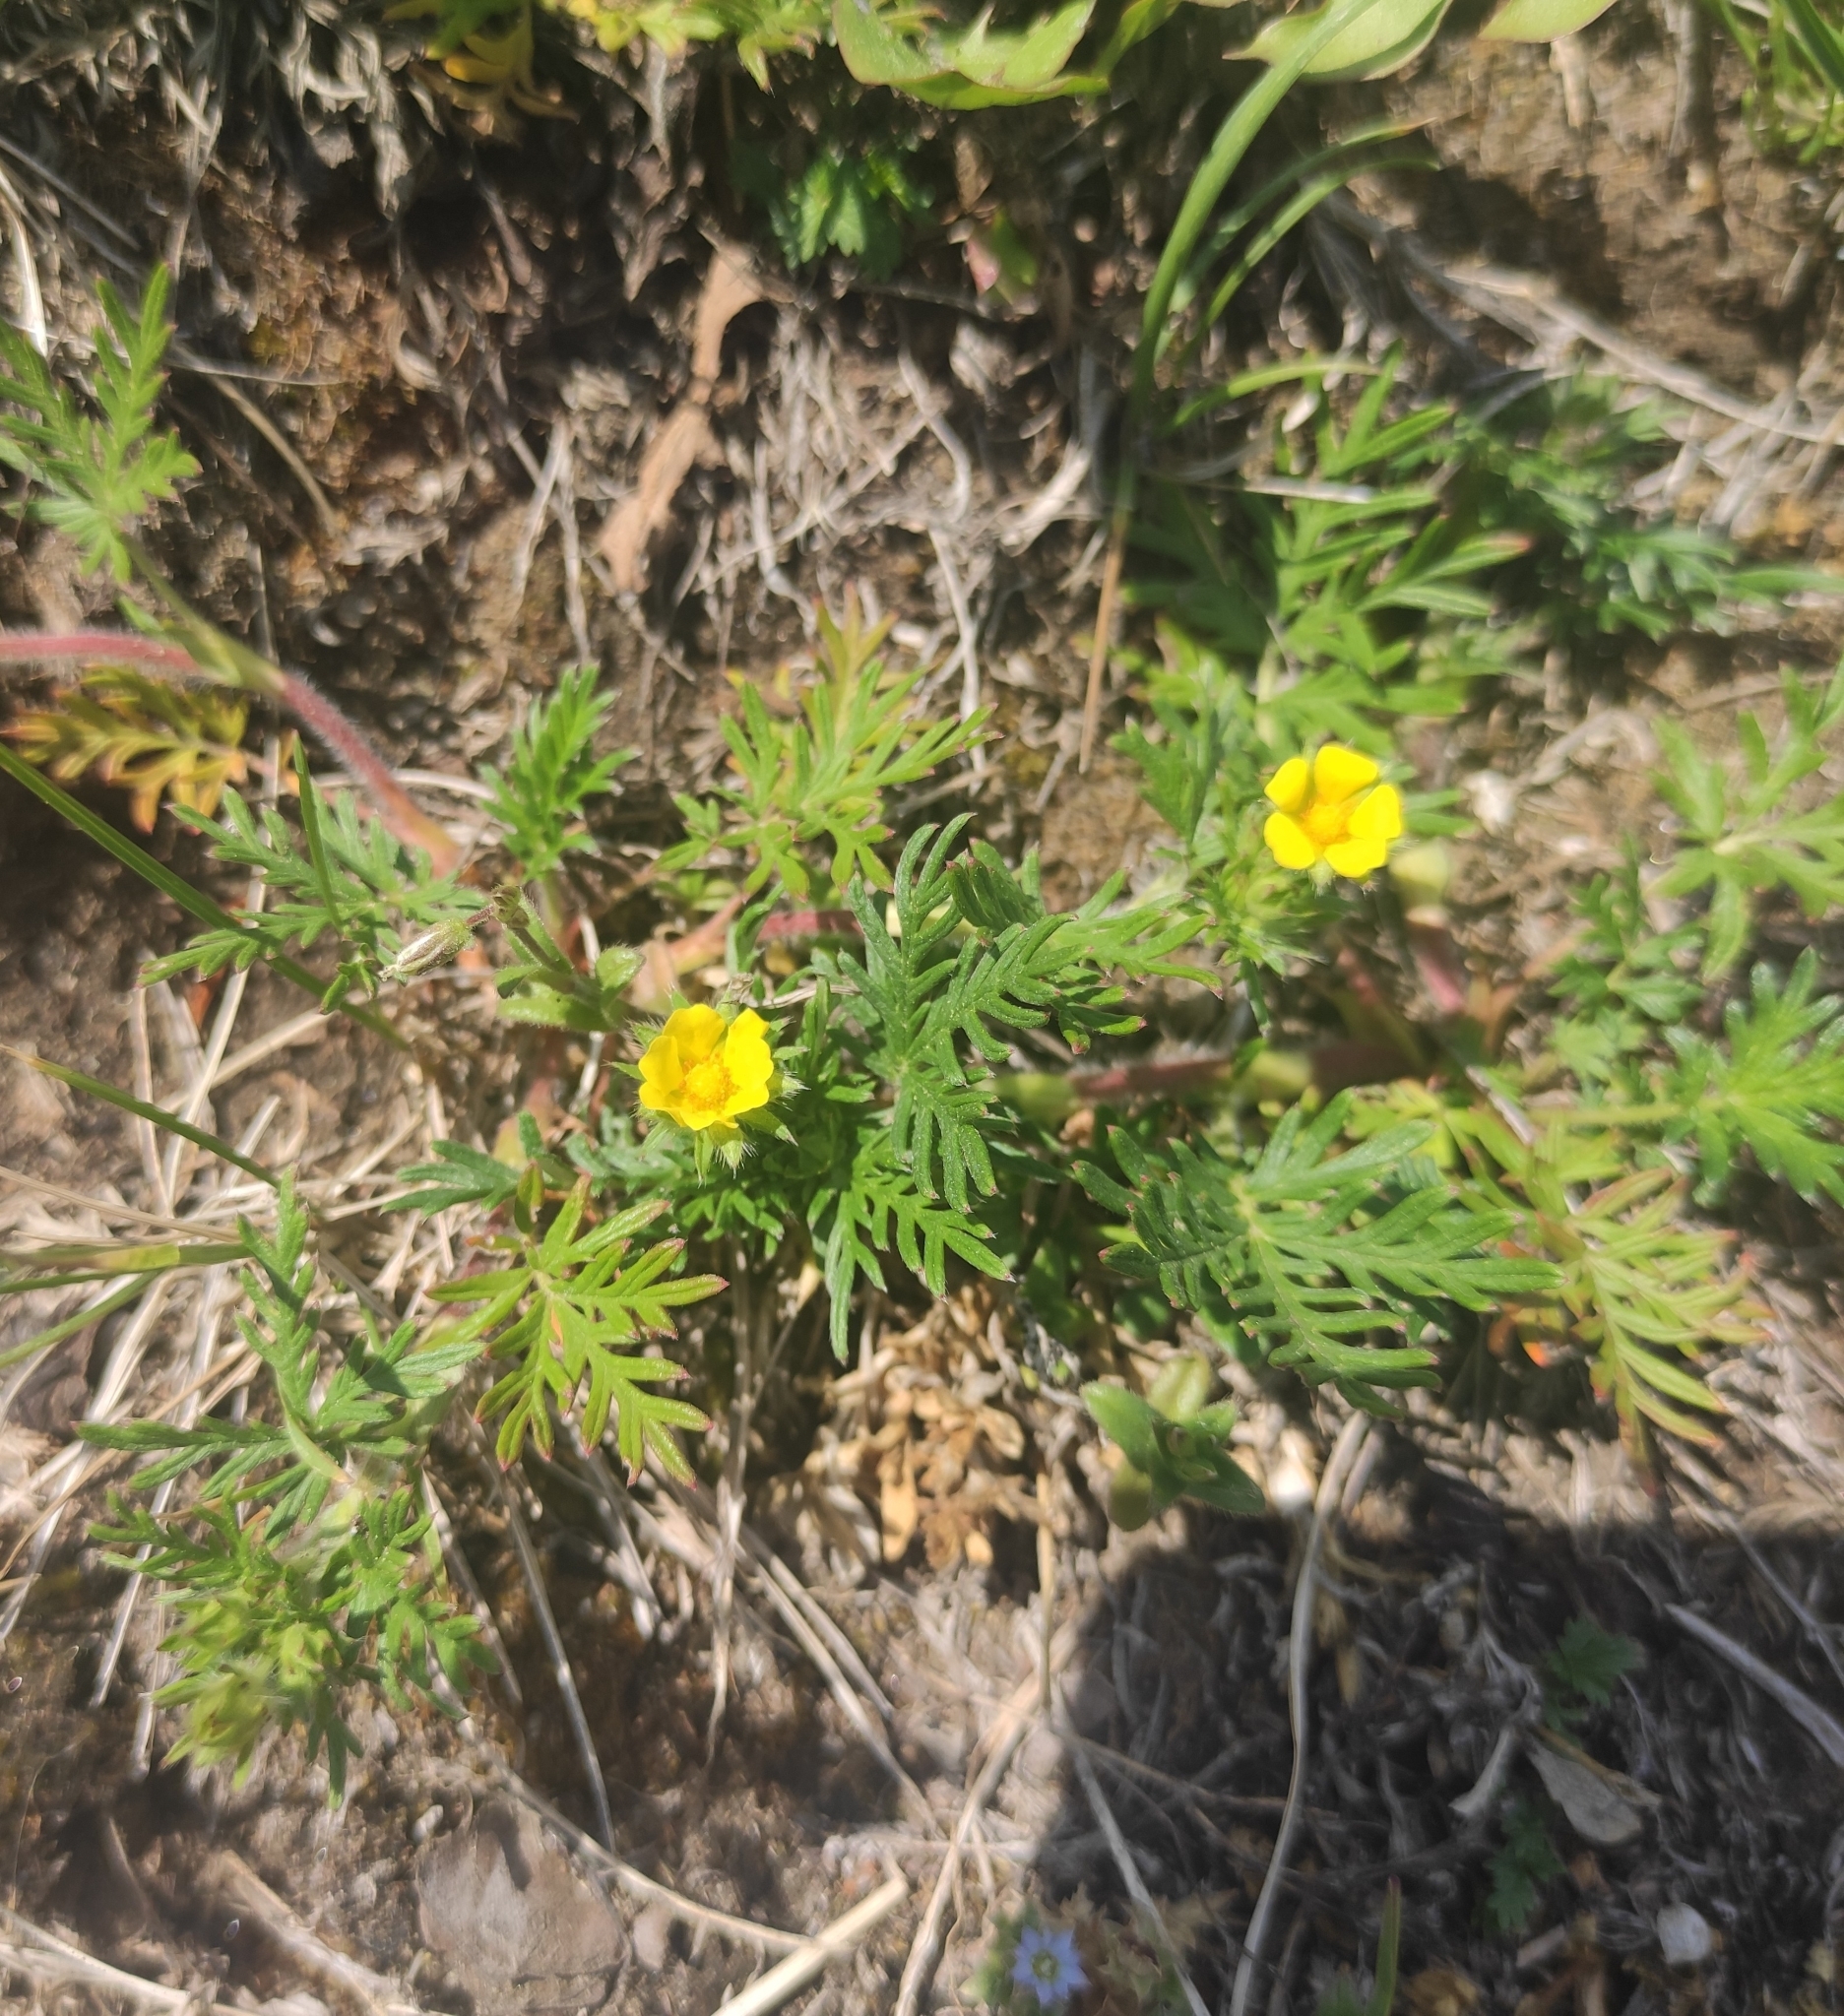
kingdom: Plantae
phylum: Tracheophyta
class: Magnoliopsida
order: Rosales
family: Rosaceae
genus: Potentilla
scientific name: Potentilla tergemina
